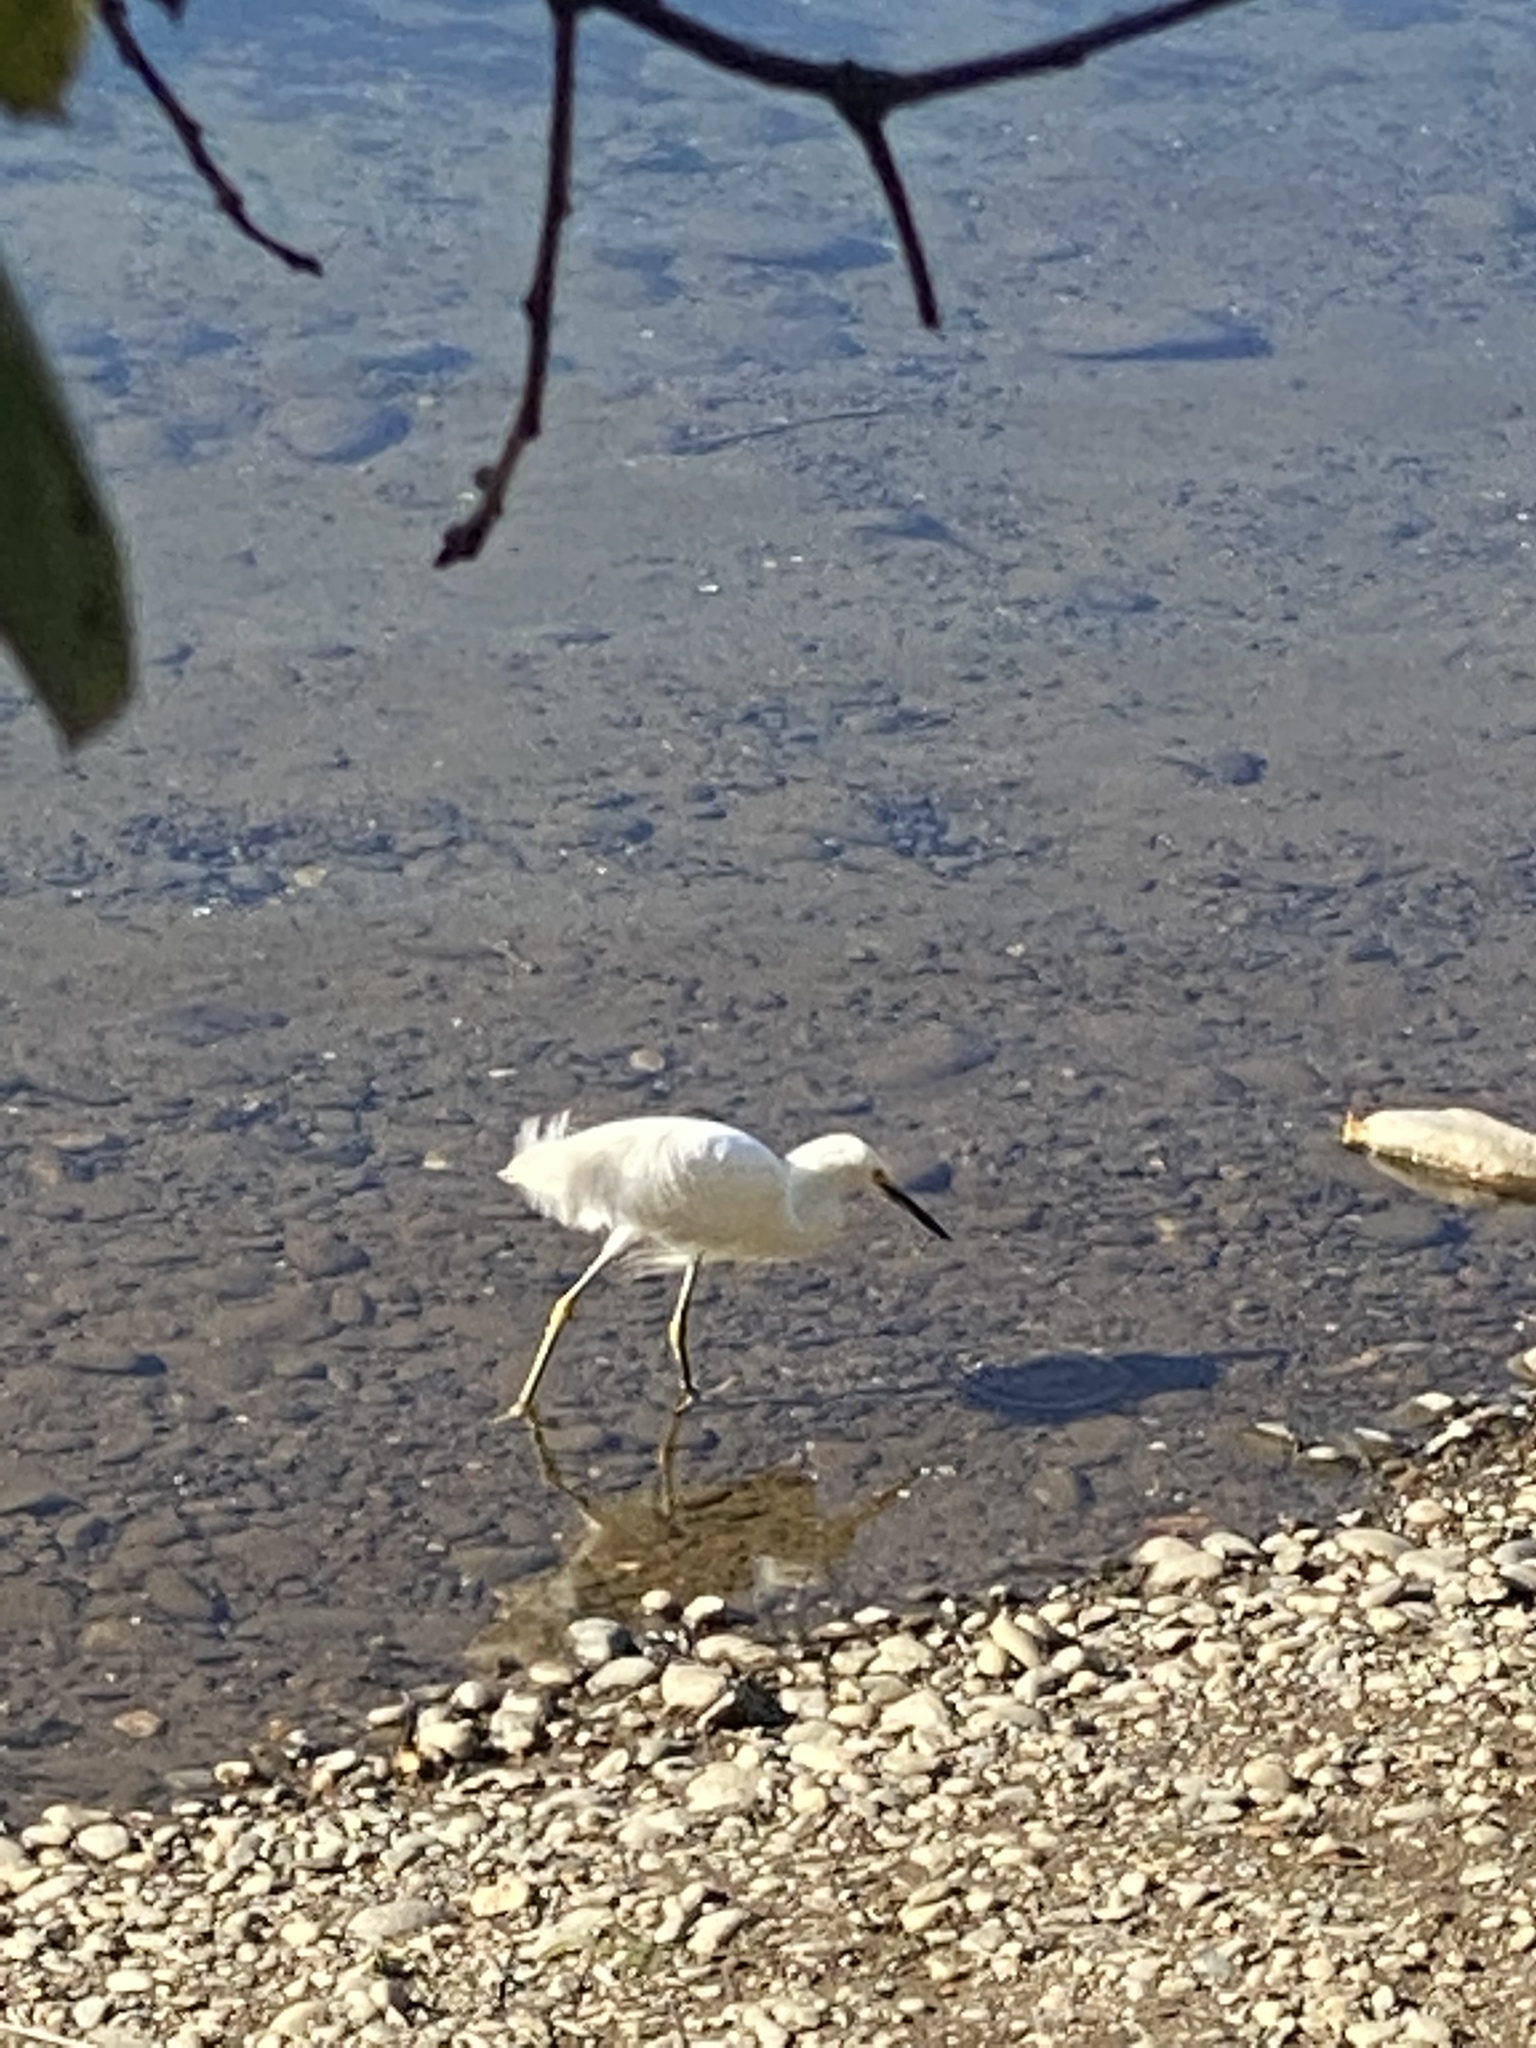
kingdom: Animalia
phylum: Chordata
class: Aves
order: Pelecaniformes
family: Ardeidae
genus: Egretta
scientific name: Egretta thula
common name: Snowy egret
